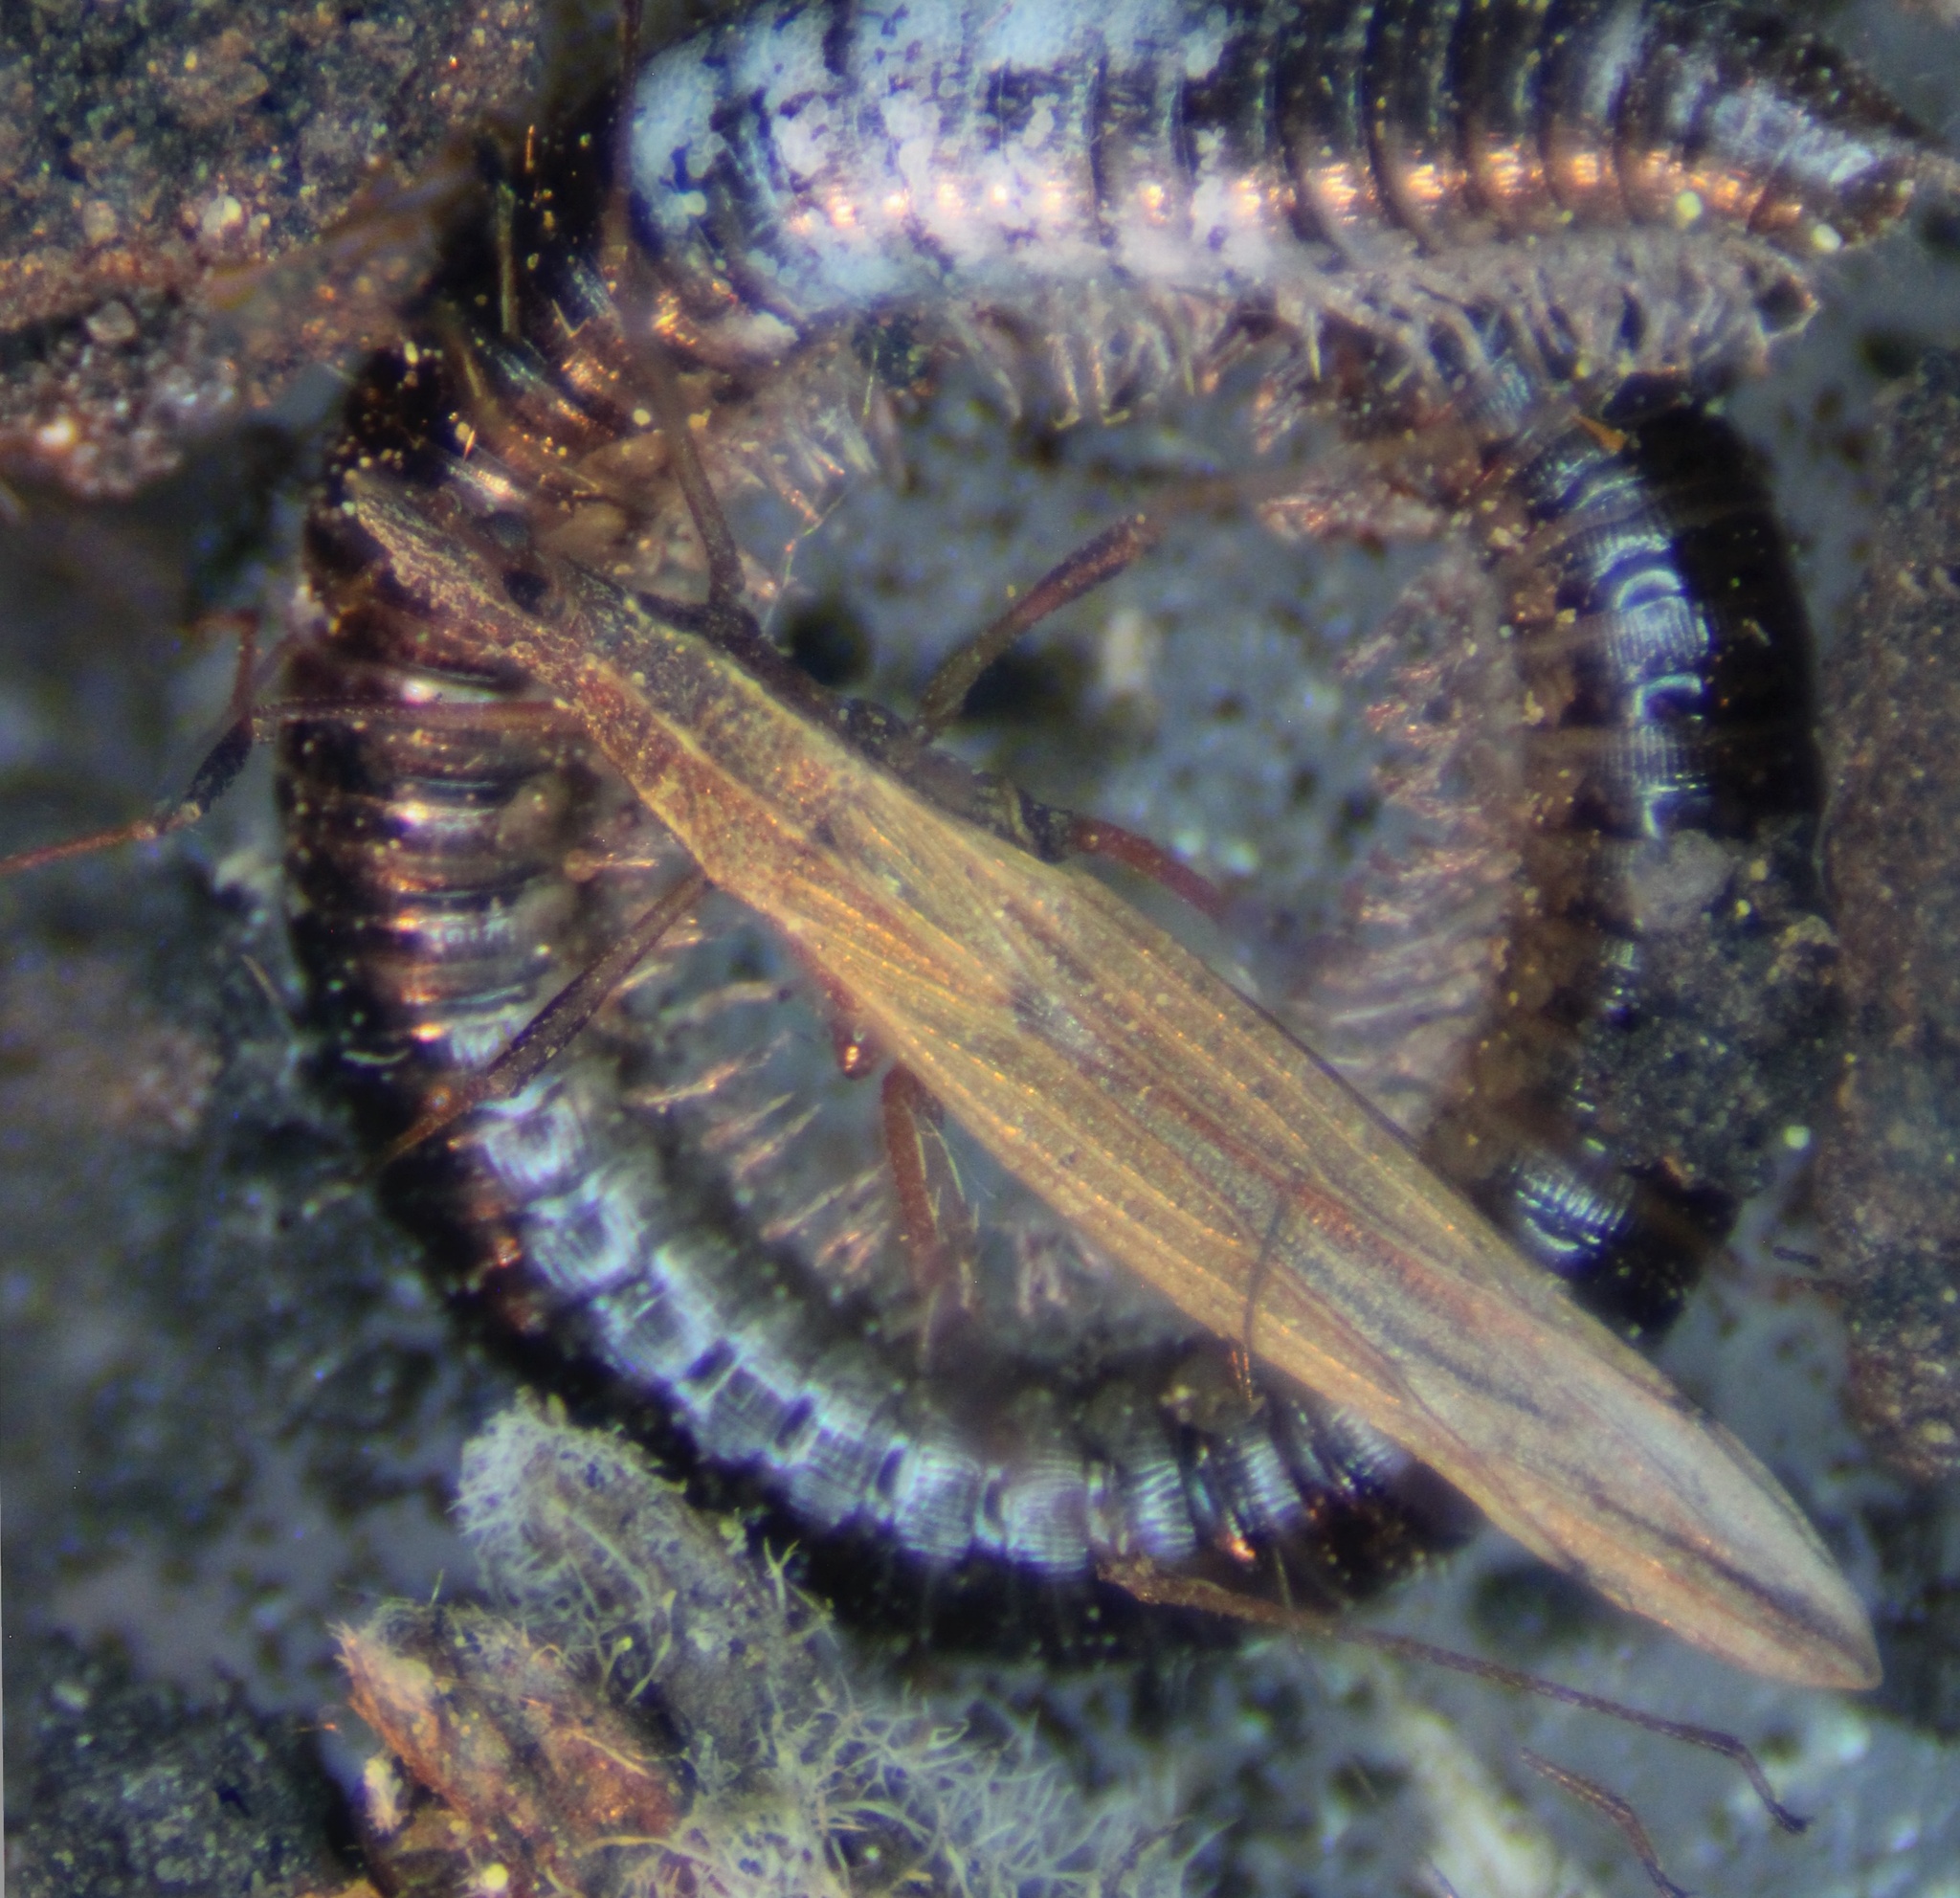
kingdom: Animalia
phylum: Arthropoda
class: Insecta
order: Hemiptera
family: Berytidae
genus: Berytinus
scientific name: Berytinus minor
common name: Stilt bug
